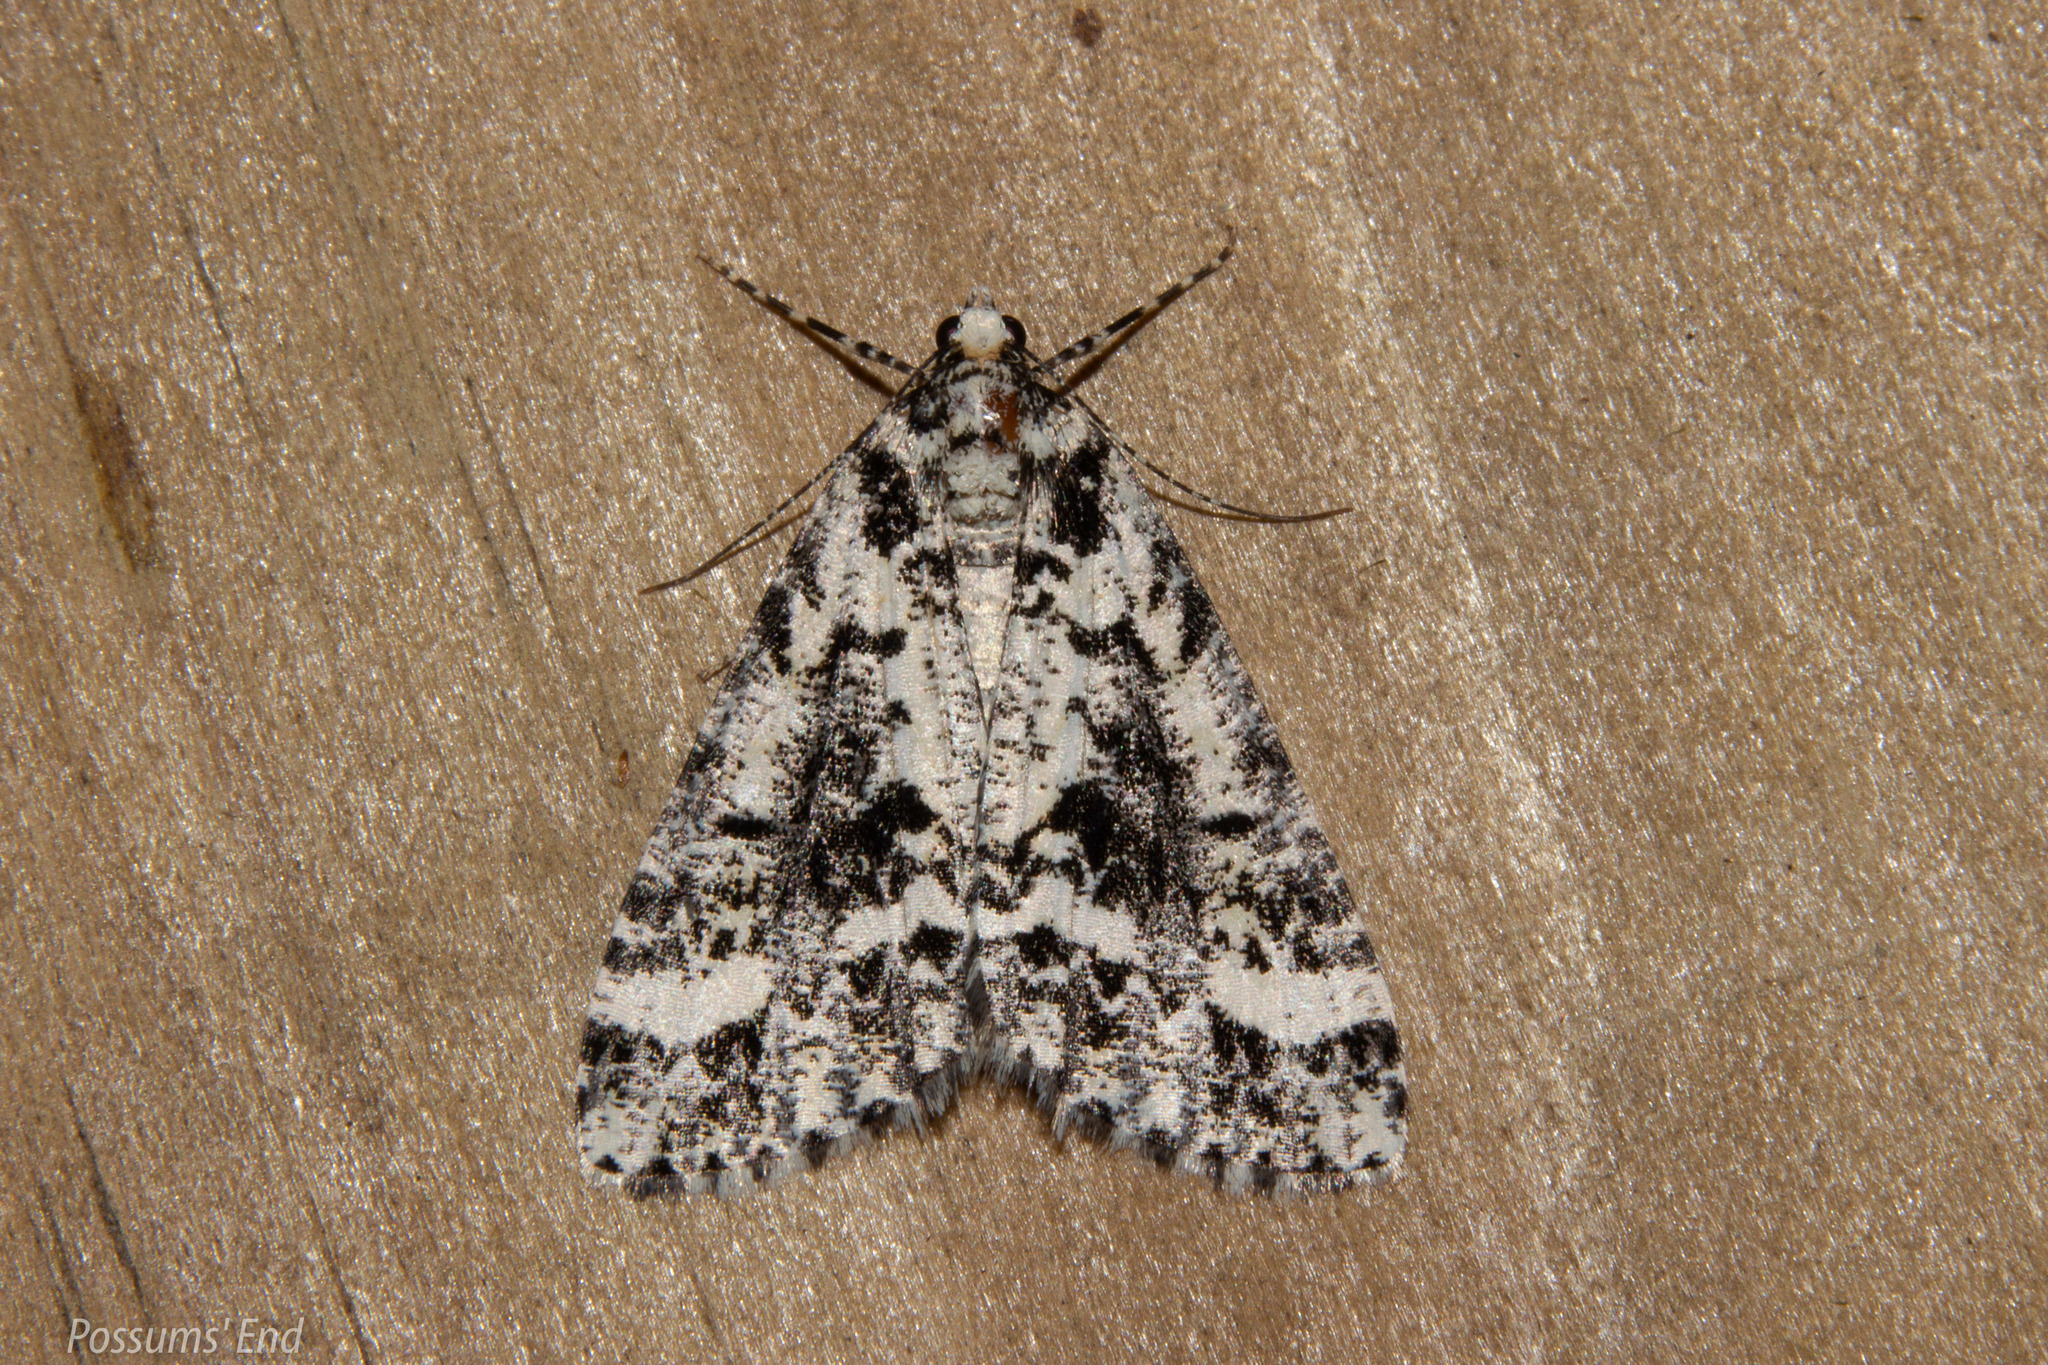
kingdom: Animalia
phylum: Arthropoda
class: Insecta
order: Lepidoptera
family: Geometridae
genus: Pseudocoremia
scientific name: Pseudocoremia leucelaea
